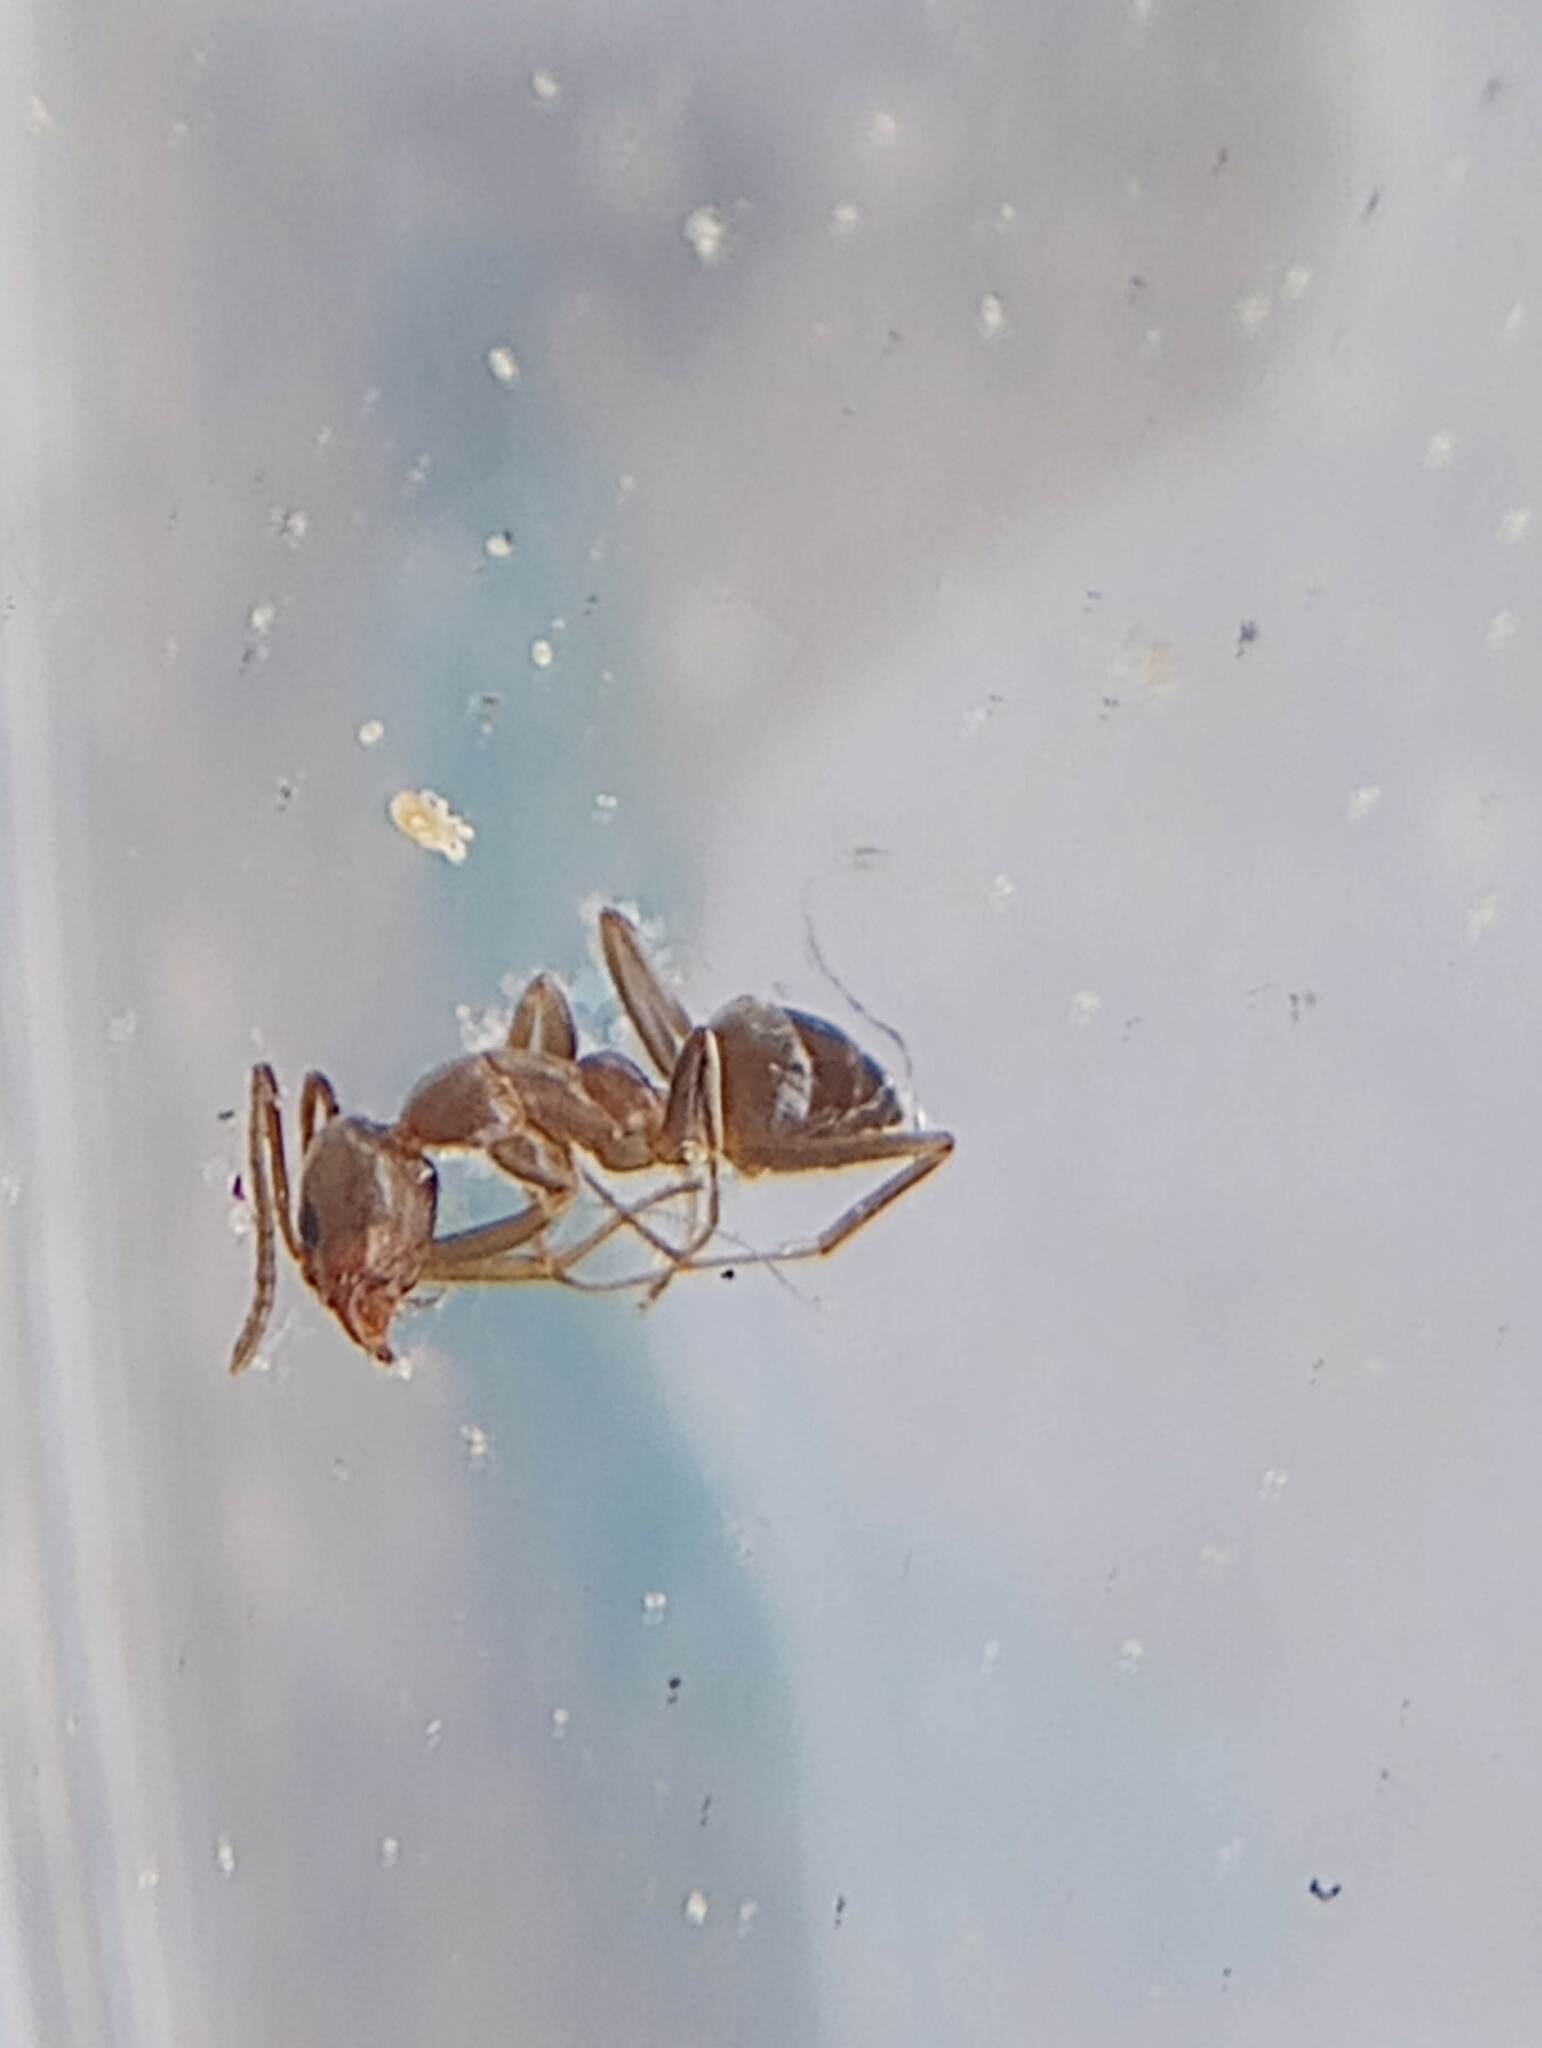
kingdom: Animalia
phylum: Arthropoda
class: Insecta
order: Hymenoptera
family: Formicidae
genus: Linepithema
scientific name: Linepithema humile
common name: Argentine ant
